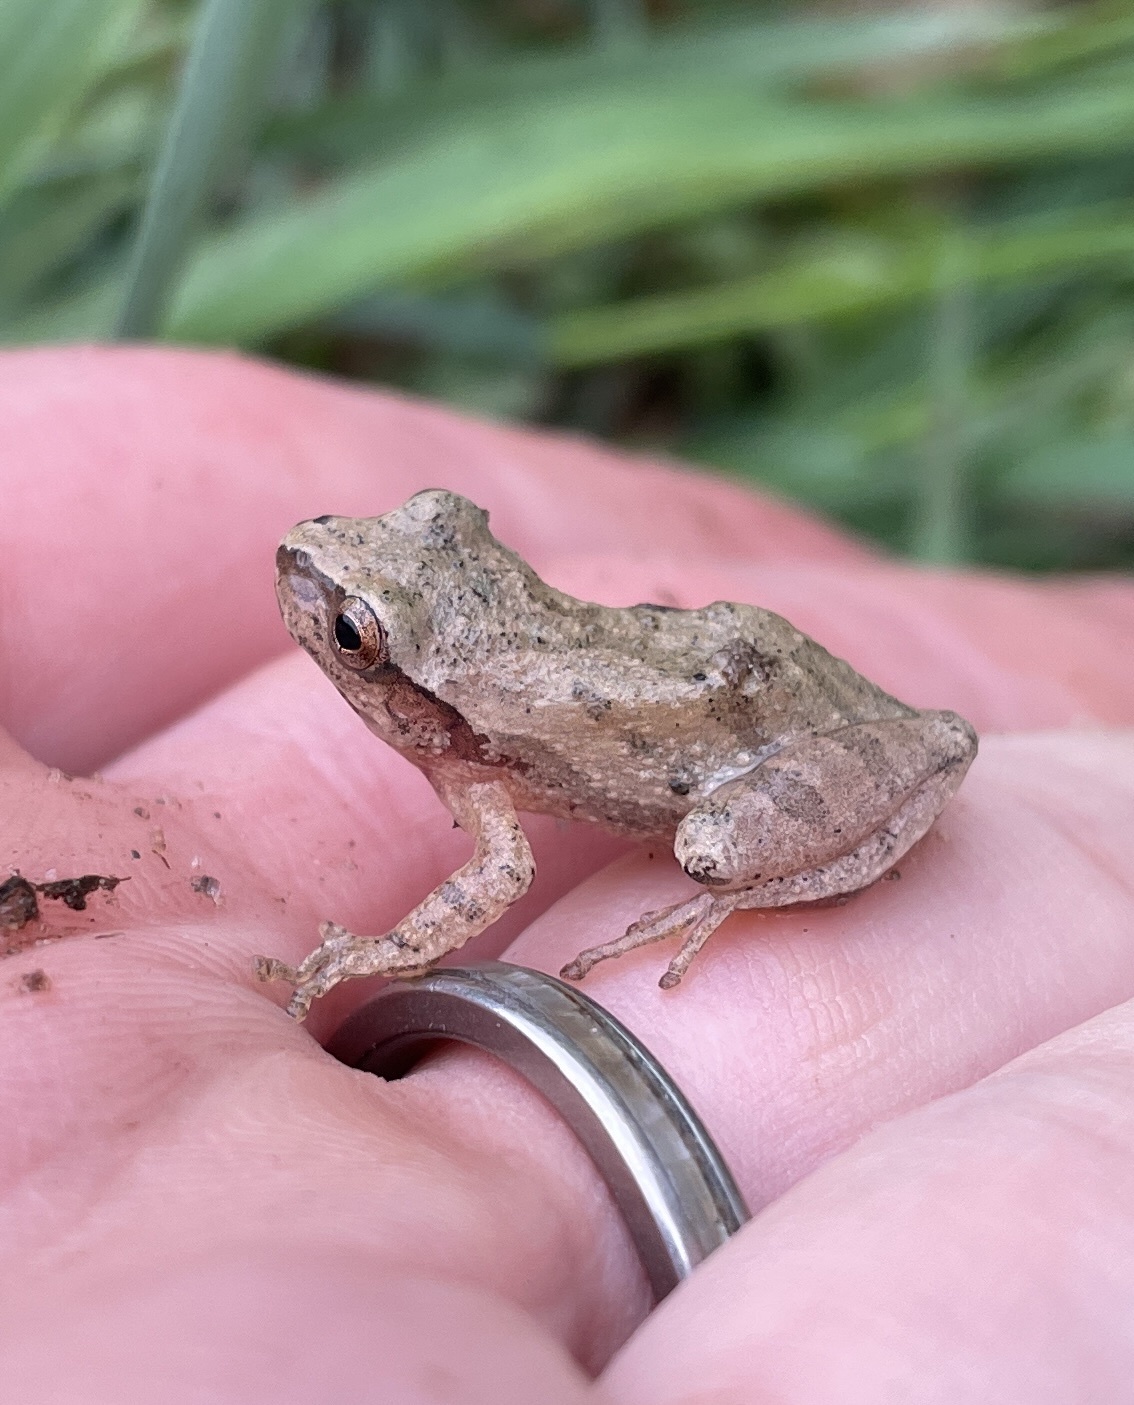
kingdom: Animalia
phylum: Chordata
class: Amphibia
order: Anura
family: Hylidae
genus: Pseudacris
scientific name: Pseudacris crucifer
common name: Spring peeper
